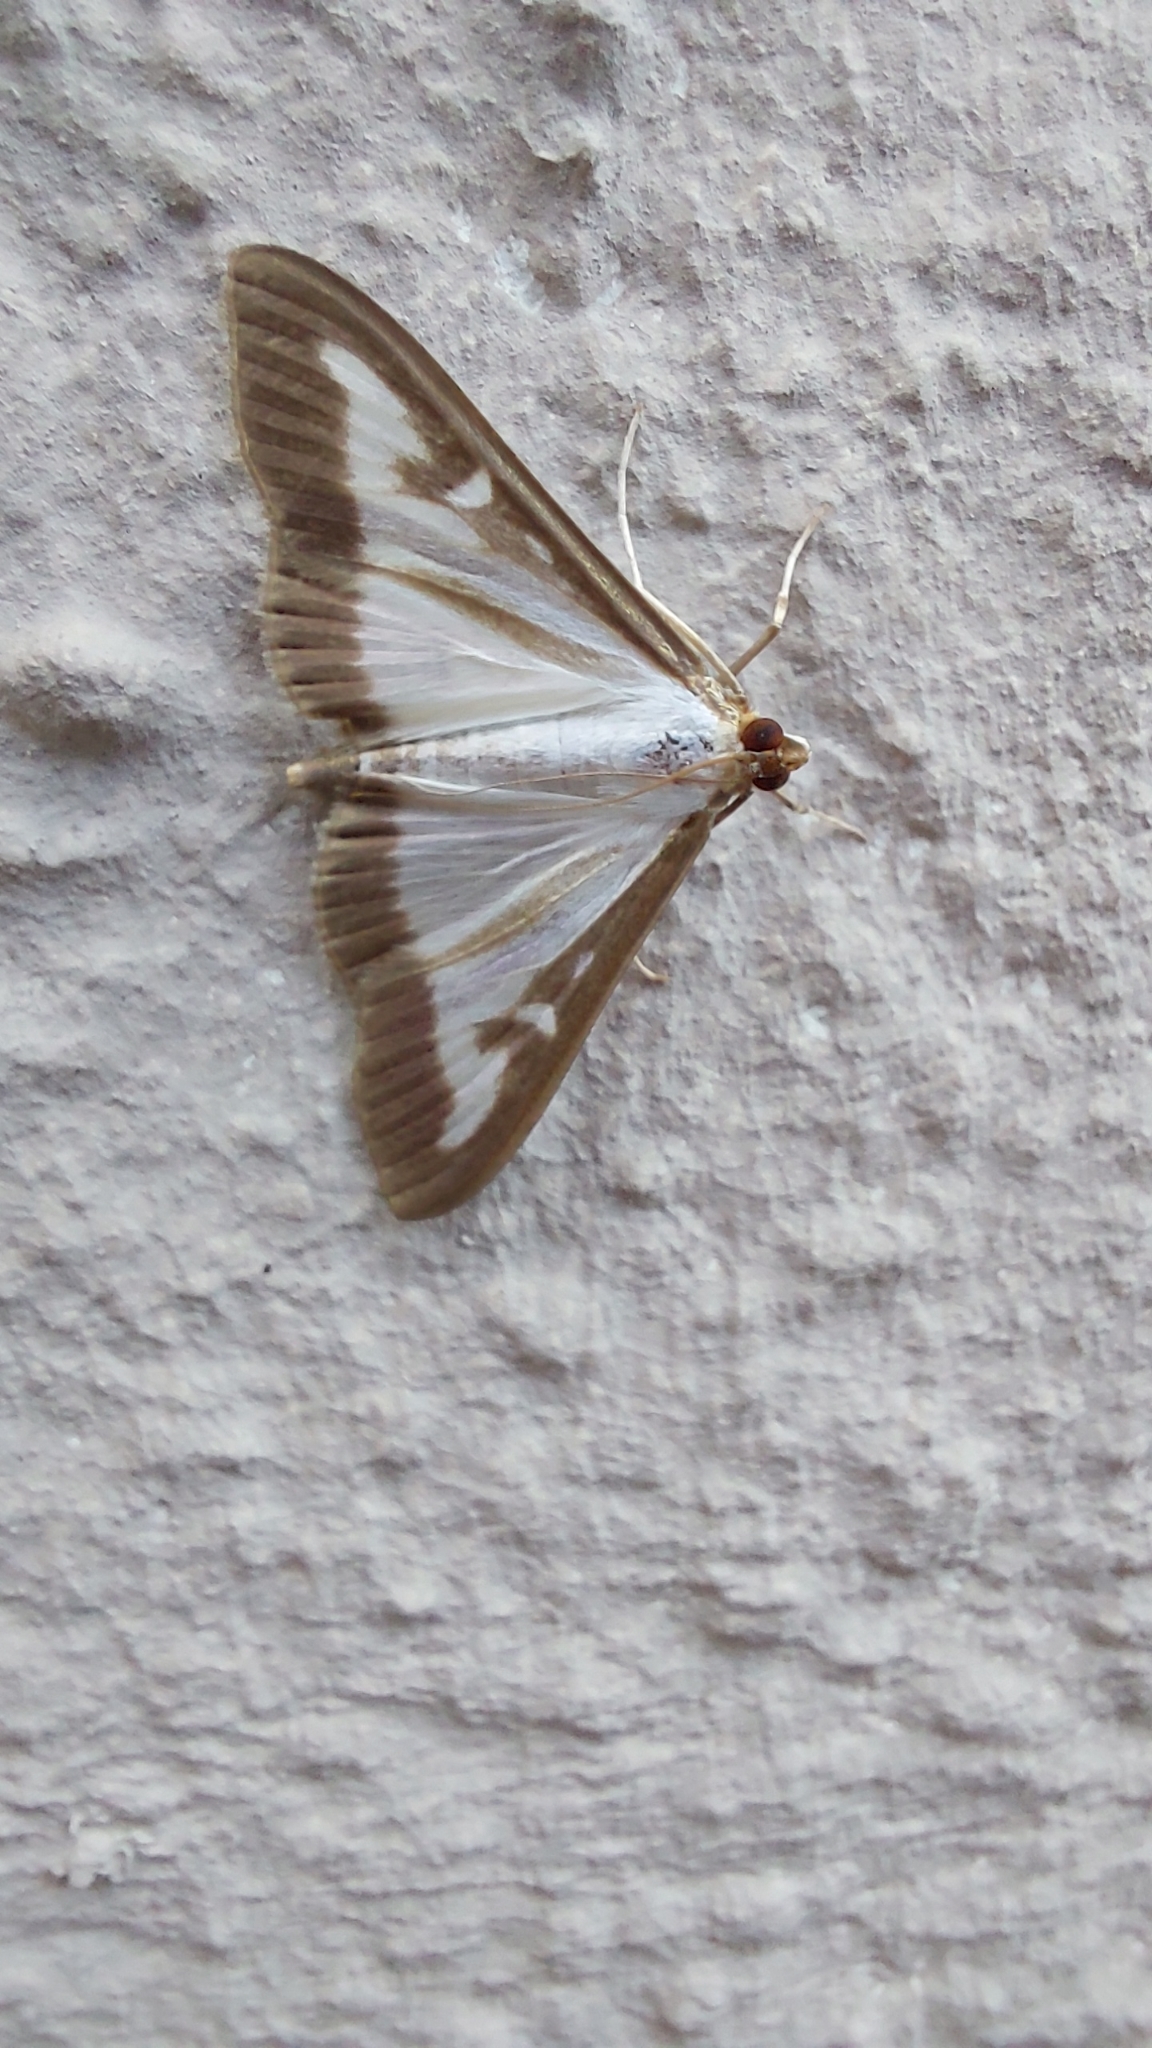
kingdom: Animalia
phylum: Arthropoda
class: Insecta
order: Lepidoptera
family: Crambidae
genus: Cydalima
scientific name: Cydalima perspectalis
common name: Box tree moth
